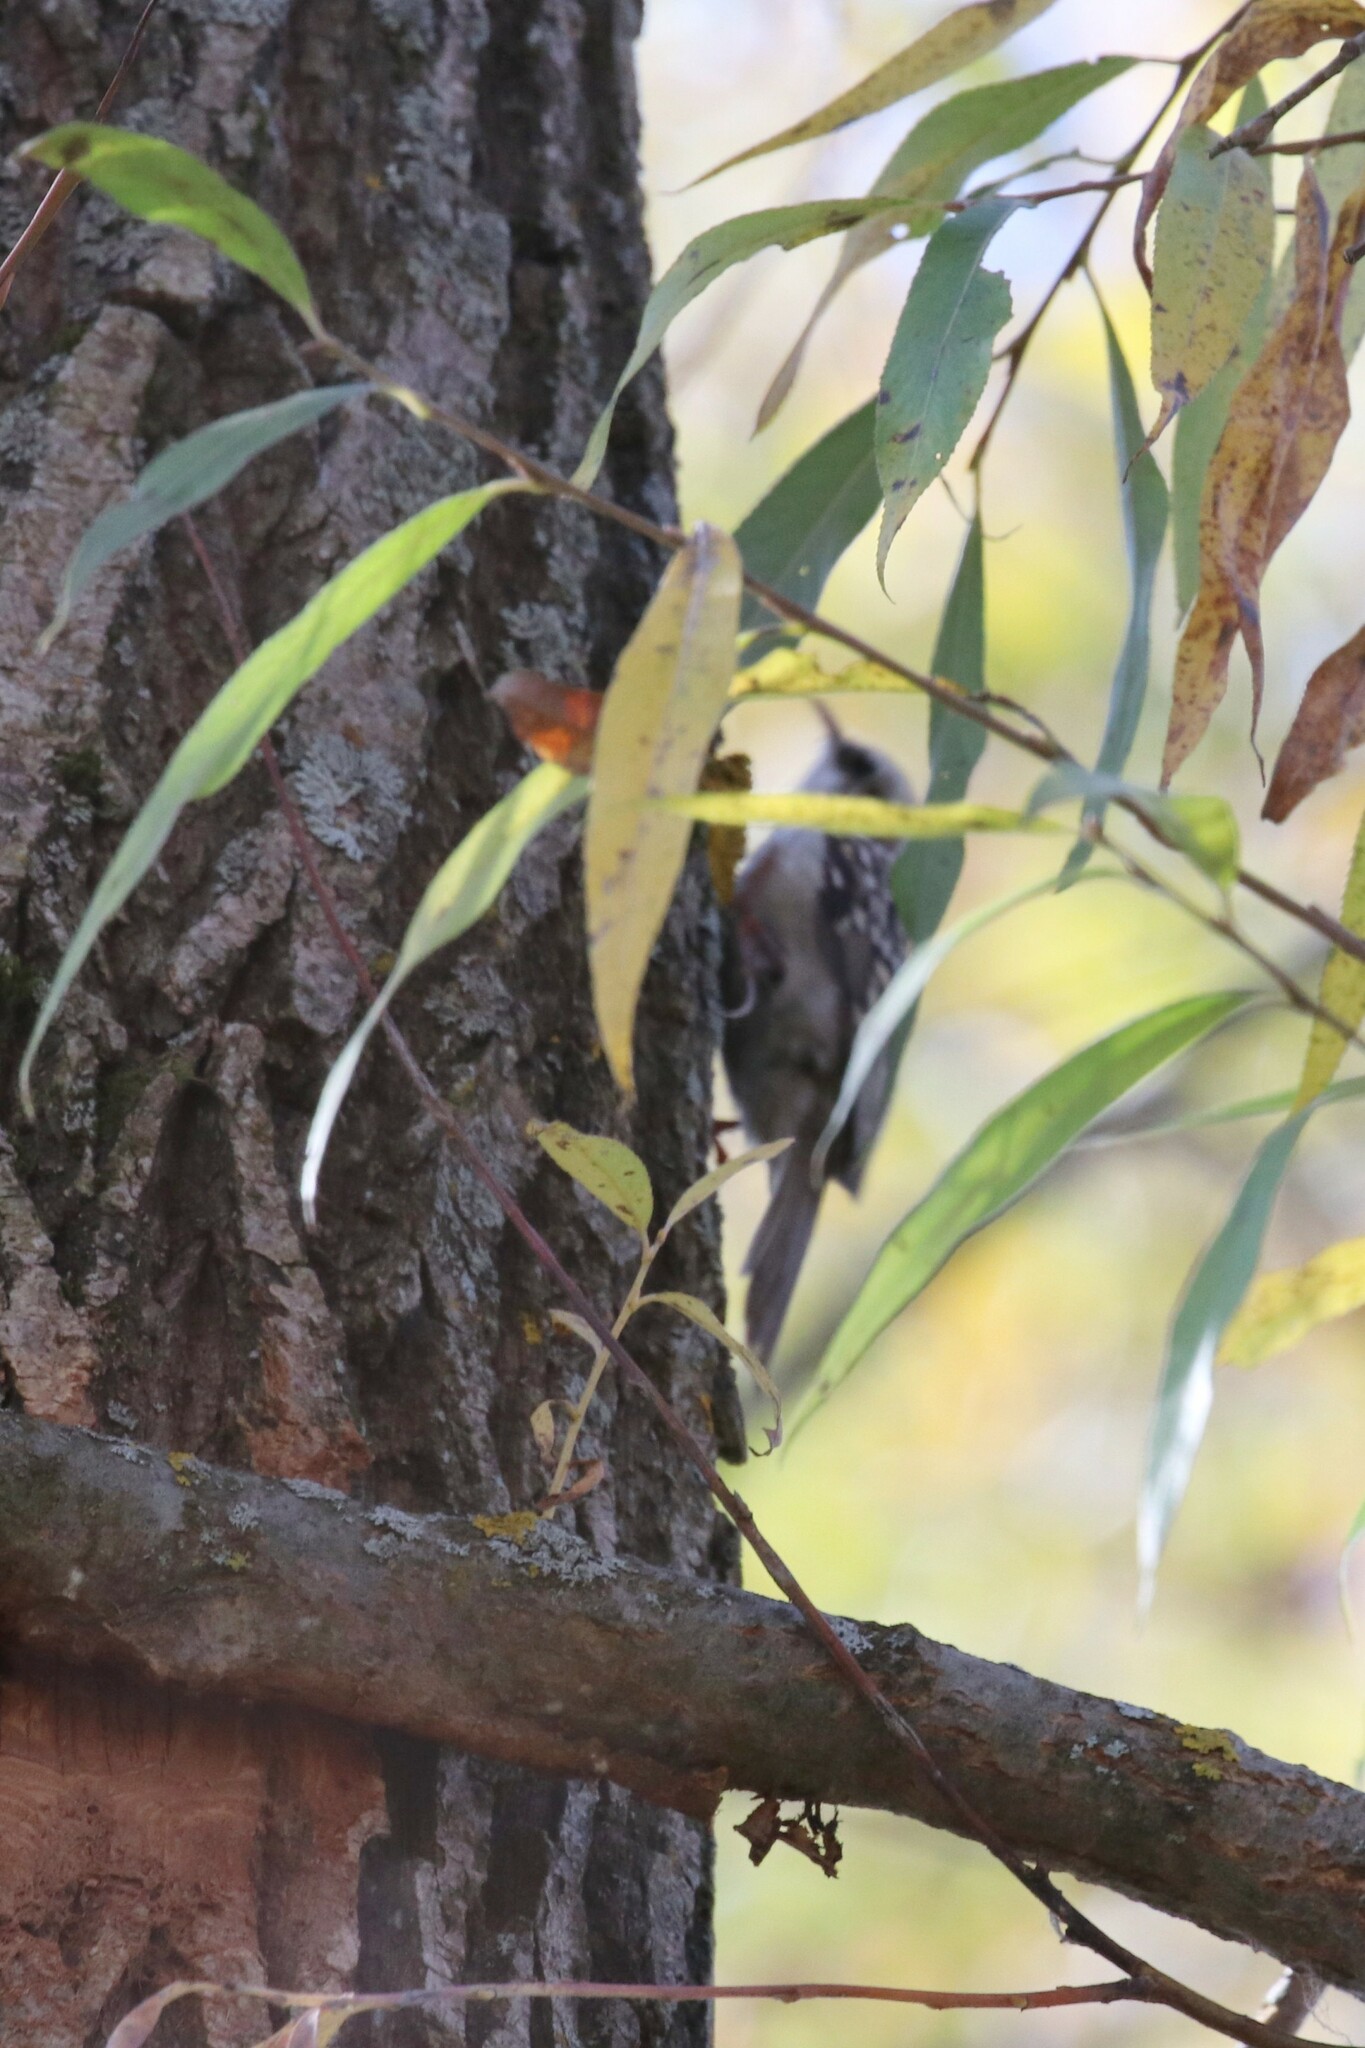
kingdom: Animalia
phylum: Chordata
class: Aves
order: Passeriformes
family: Certhiidae
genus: Certhia
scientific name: Certhia familiaris
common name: Eurasian treecreeper
